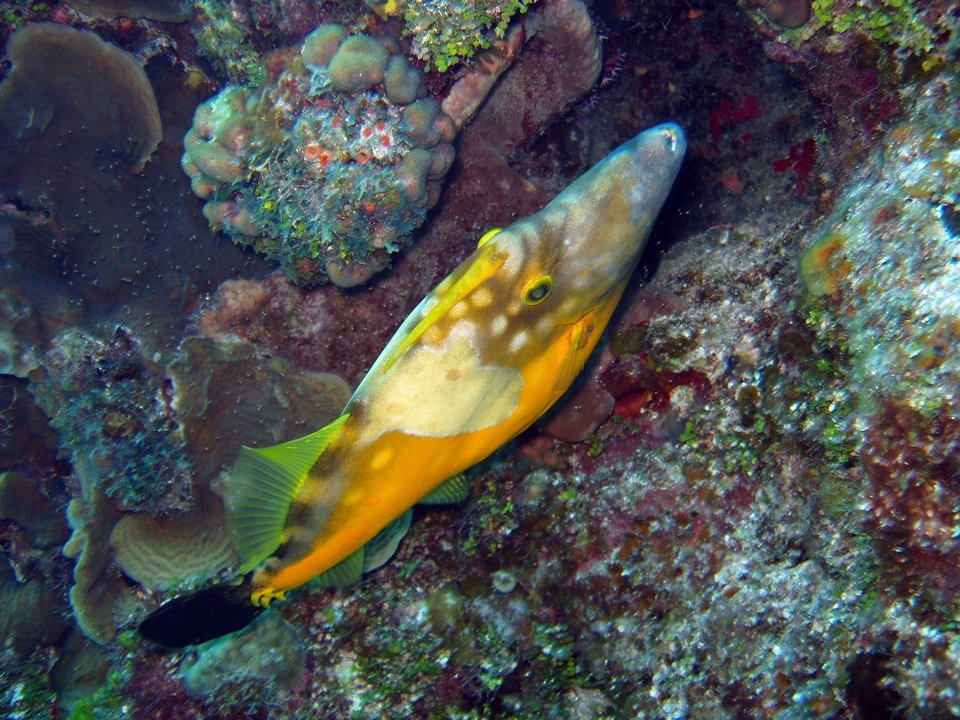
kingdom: Animalia
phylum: Chordata
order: Tetraodontiformes
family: Monacanthidae
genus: Cantherhines
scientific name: Cantherhines macrocerus
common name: Whitespotted filefish
